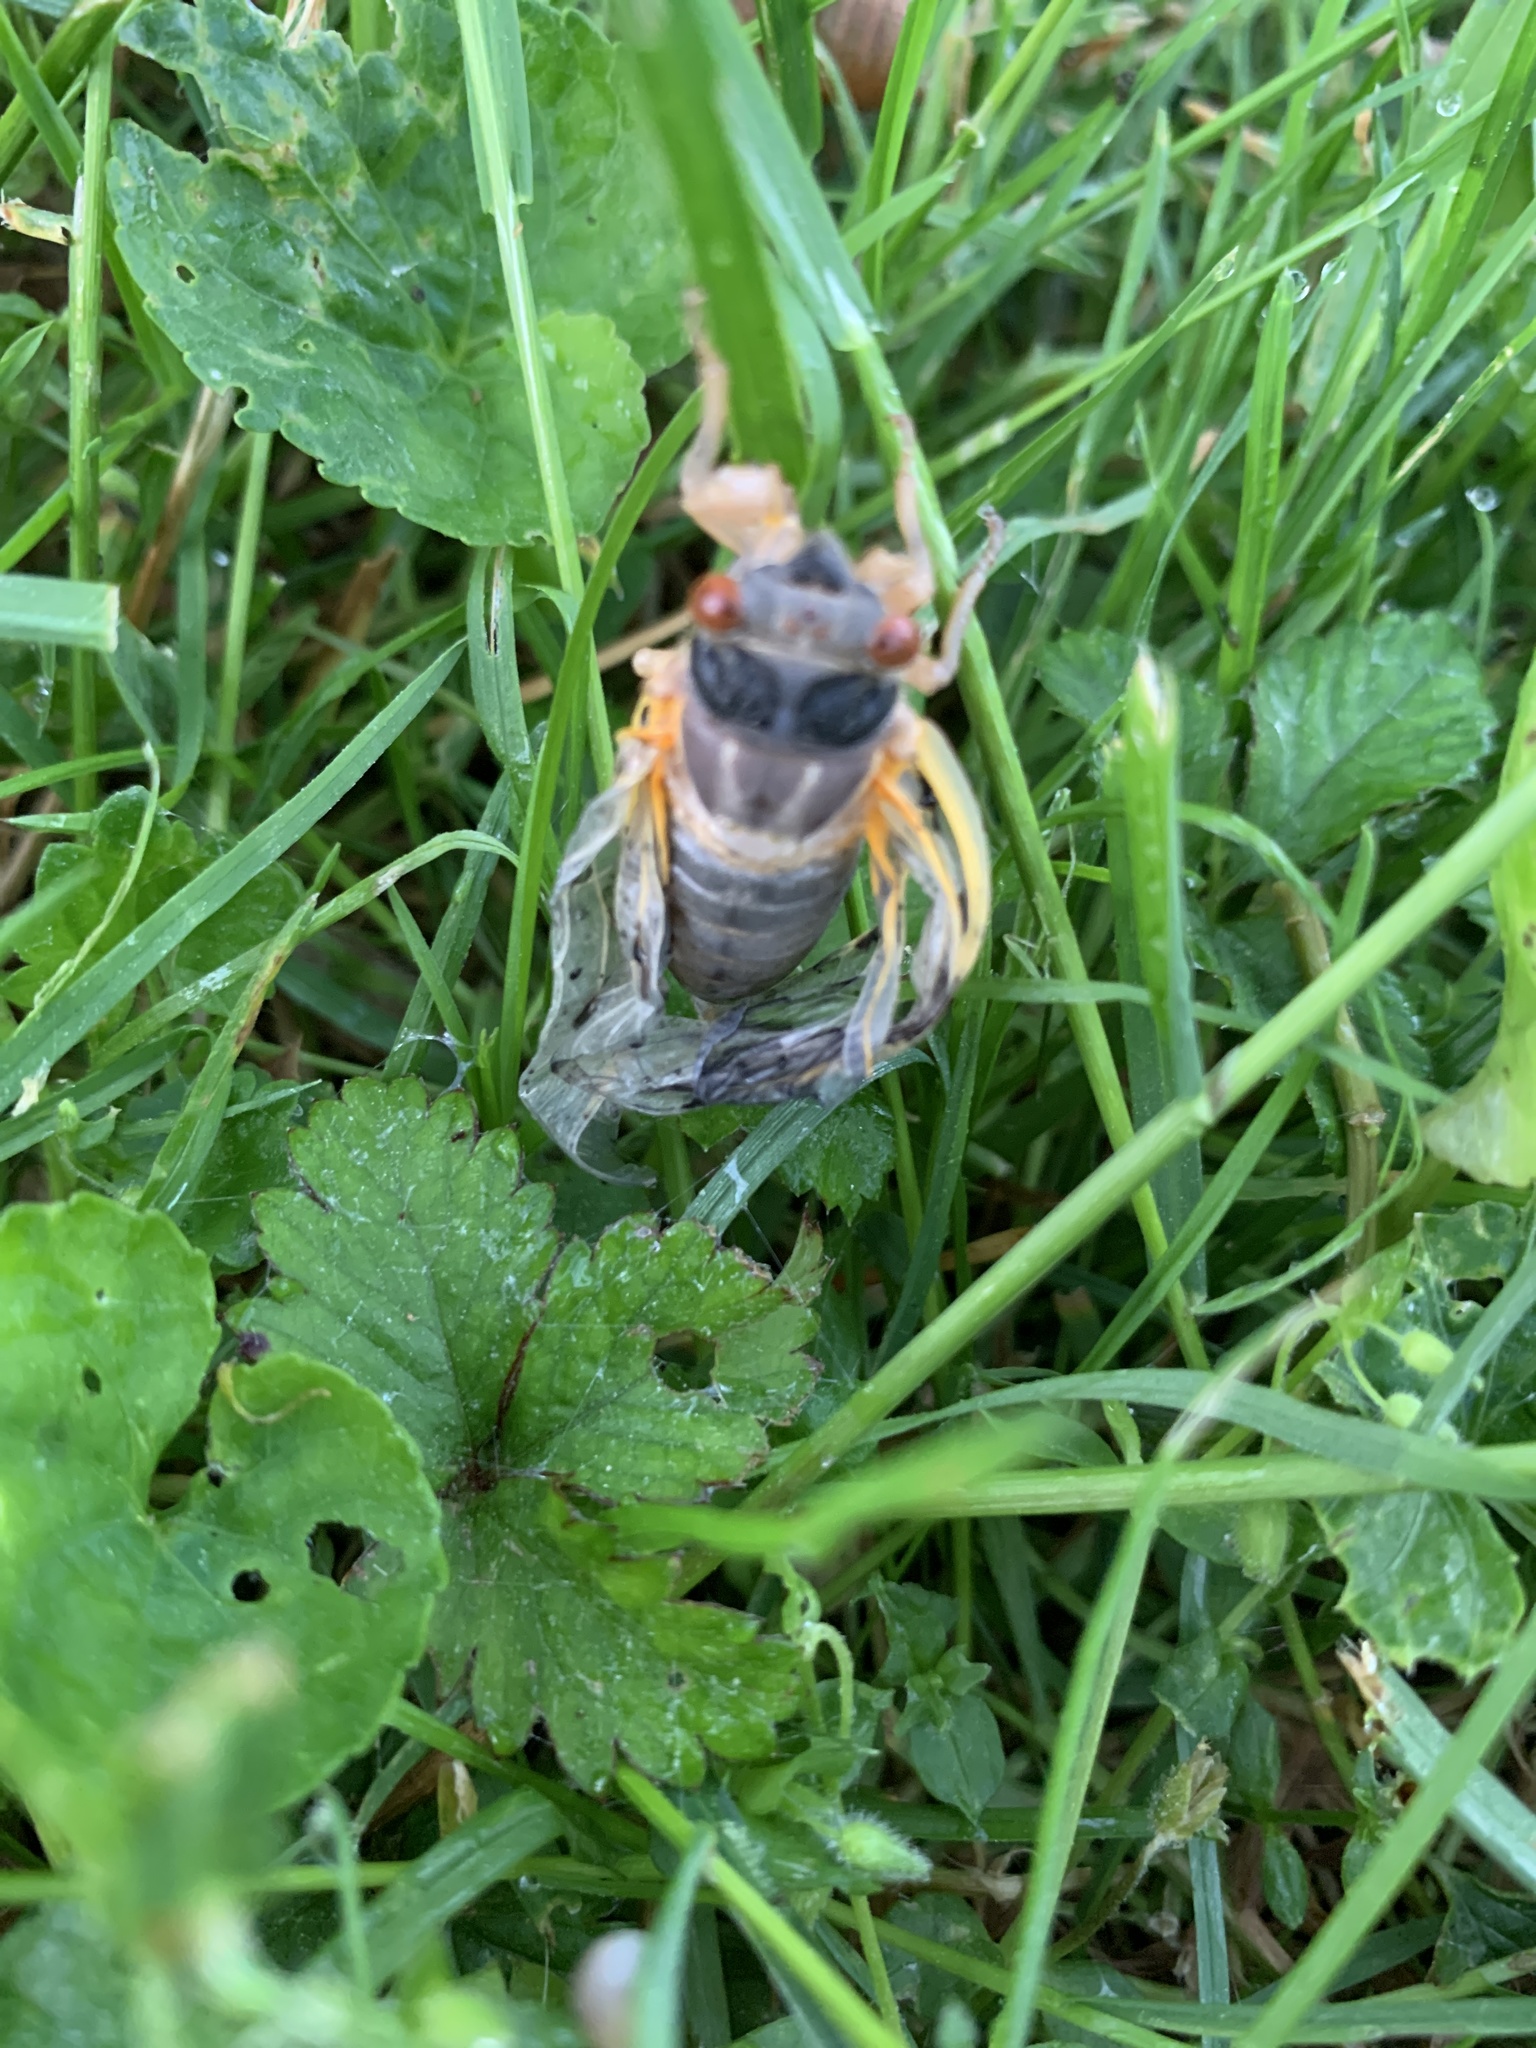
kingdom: Animalia
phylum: Arthropoda
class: Insecta
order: Hemiptera
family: Cicadidae
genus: Magicicada
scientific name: Magicicada
